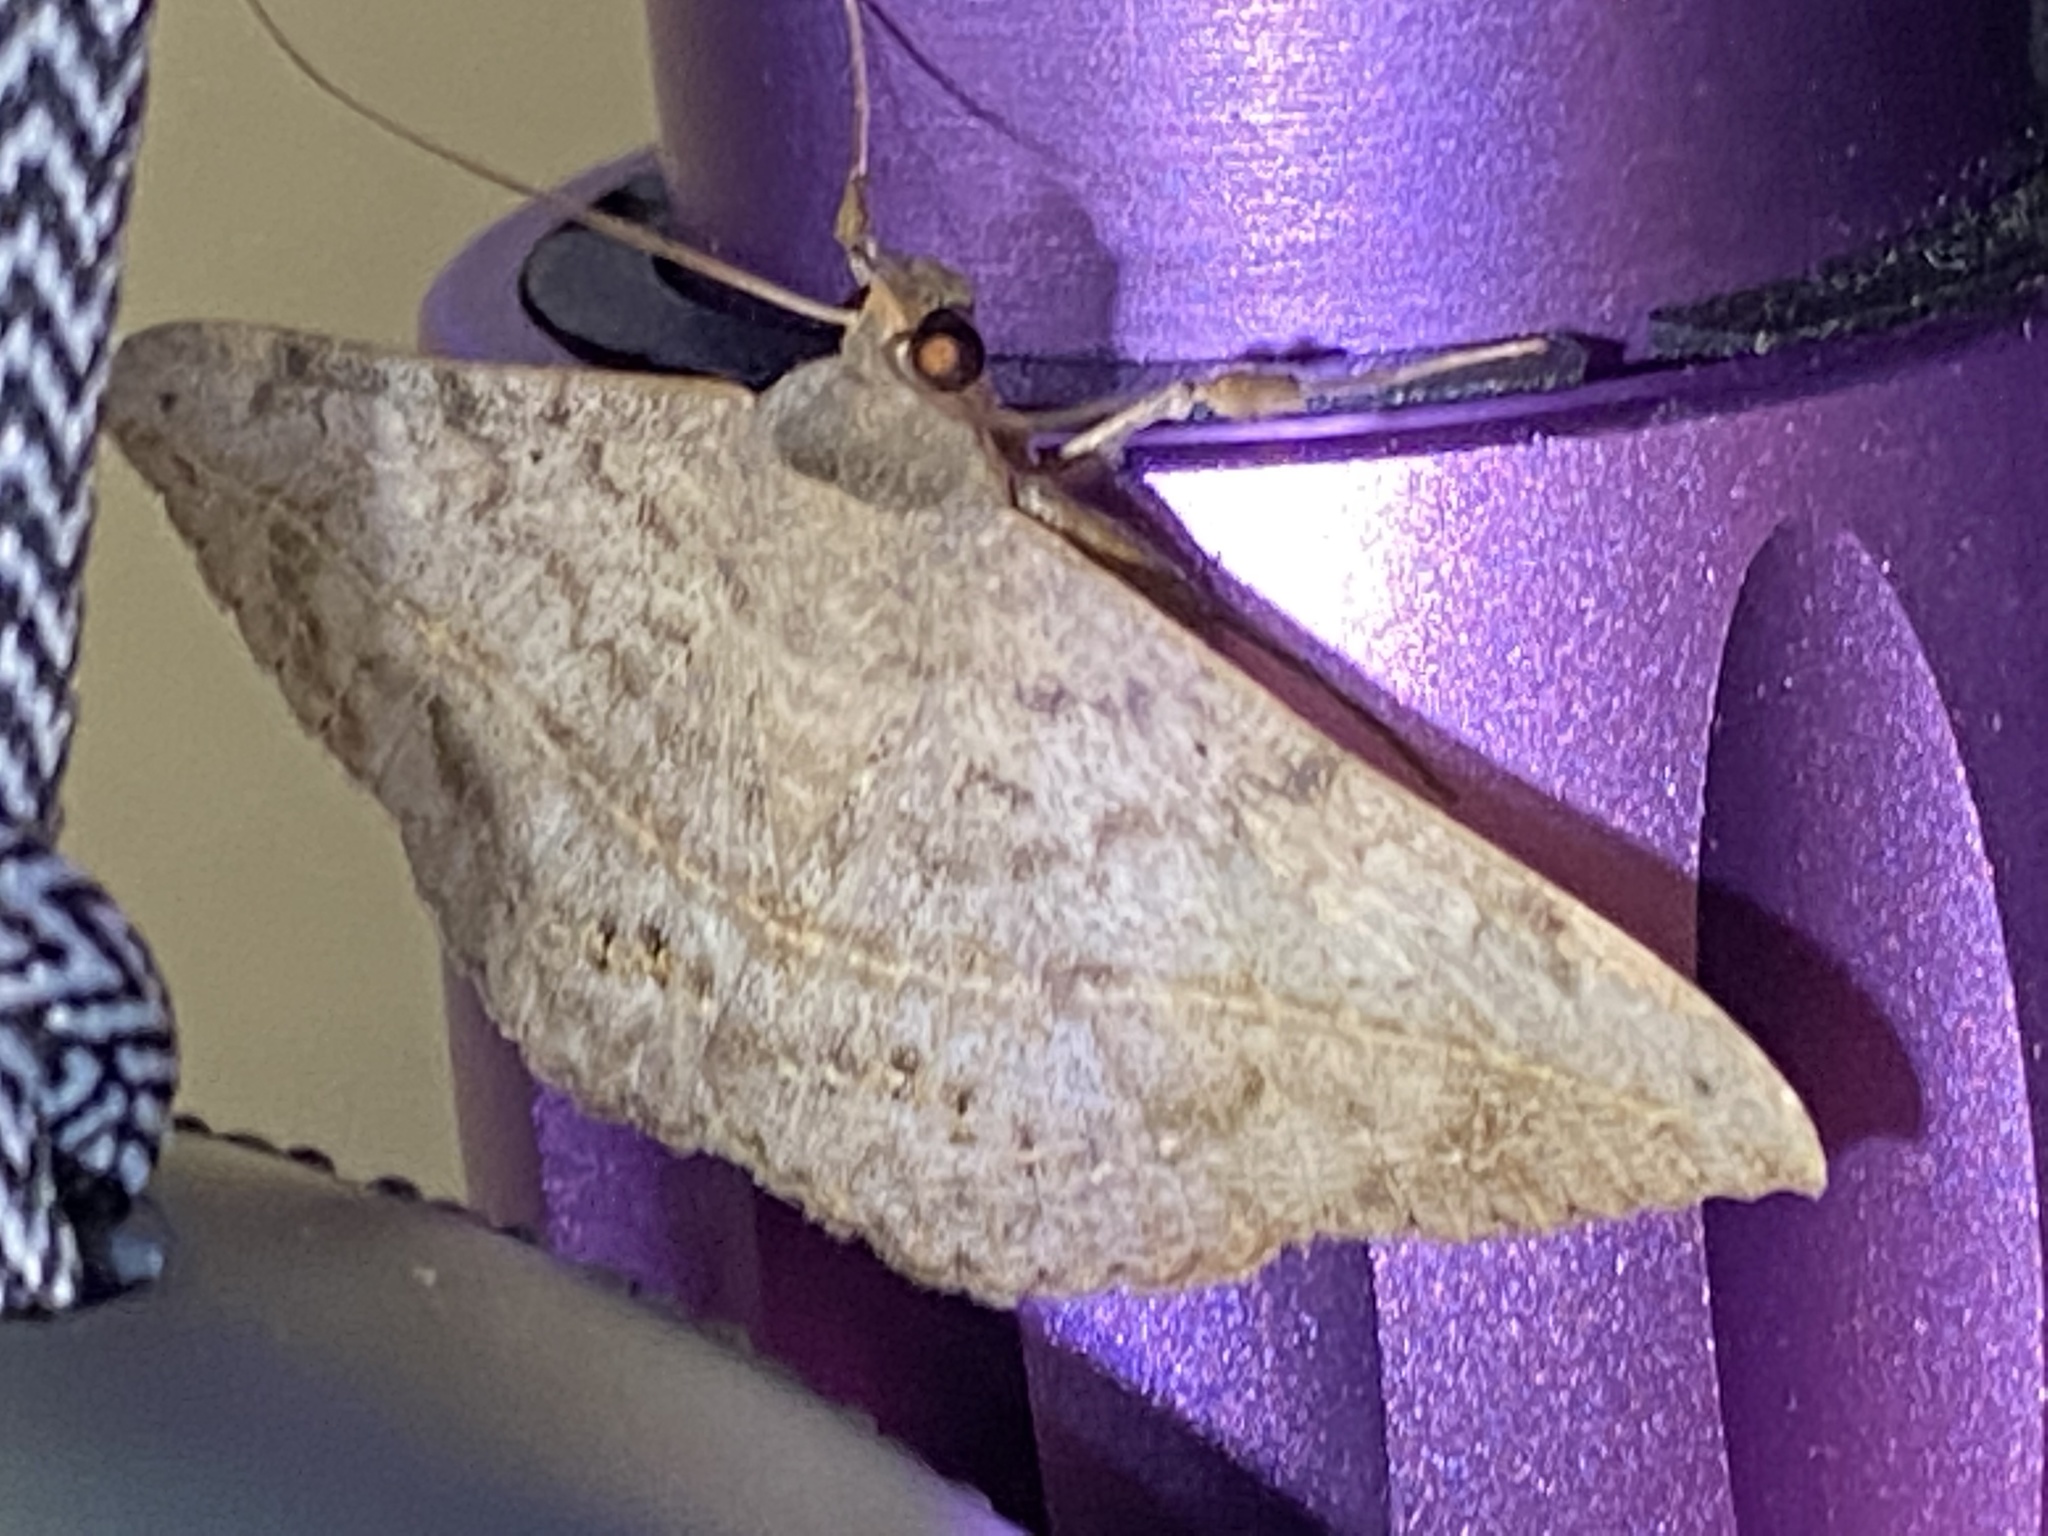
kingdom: Animalia
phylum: Arthropoda
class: Insecta
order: Lepidoptera
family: Erebidae
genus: Anticarsia
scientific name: Anticarsia gemmatalis
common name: Cutworm moth
